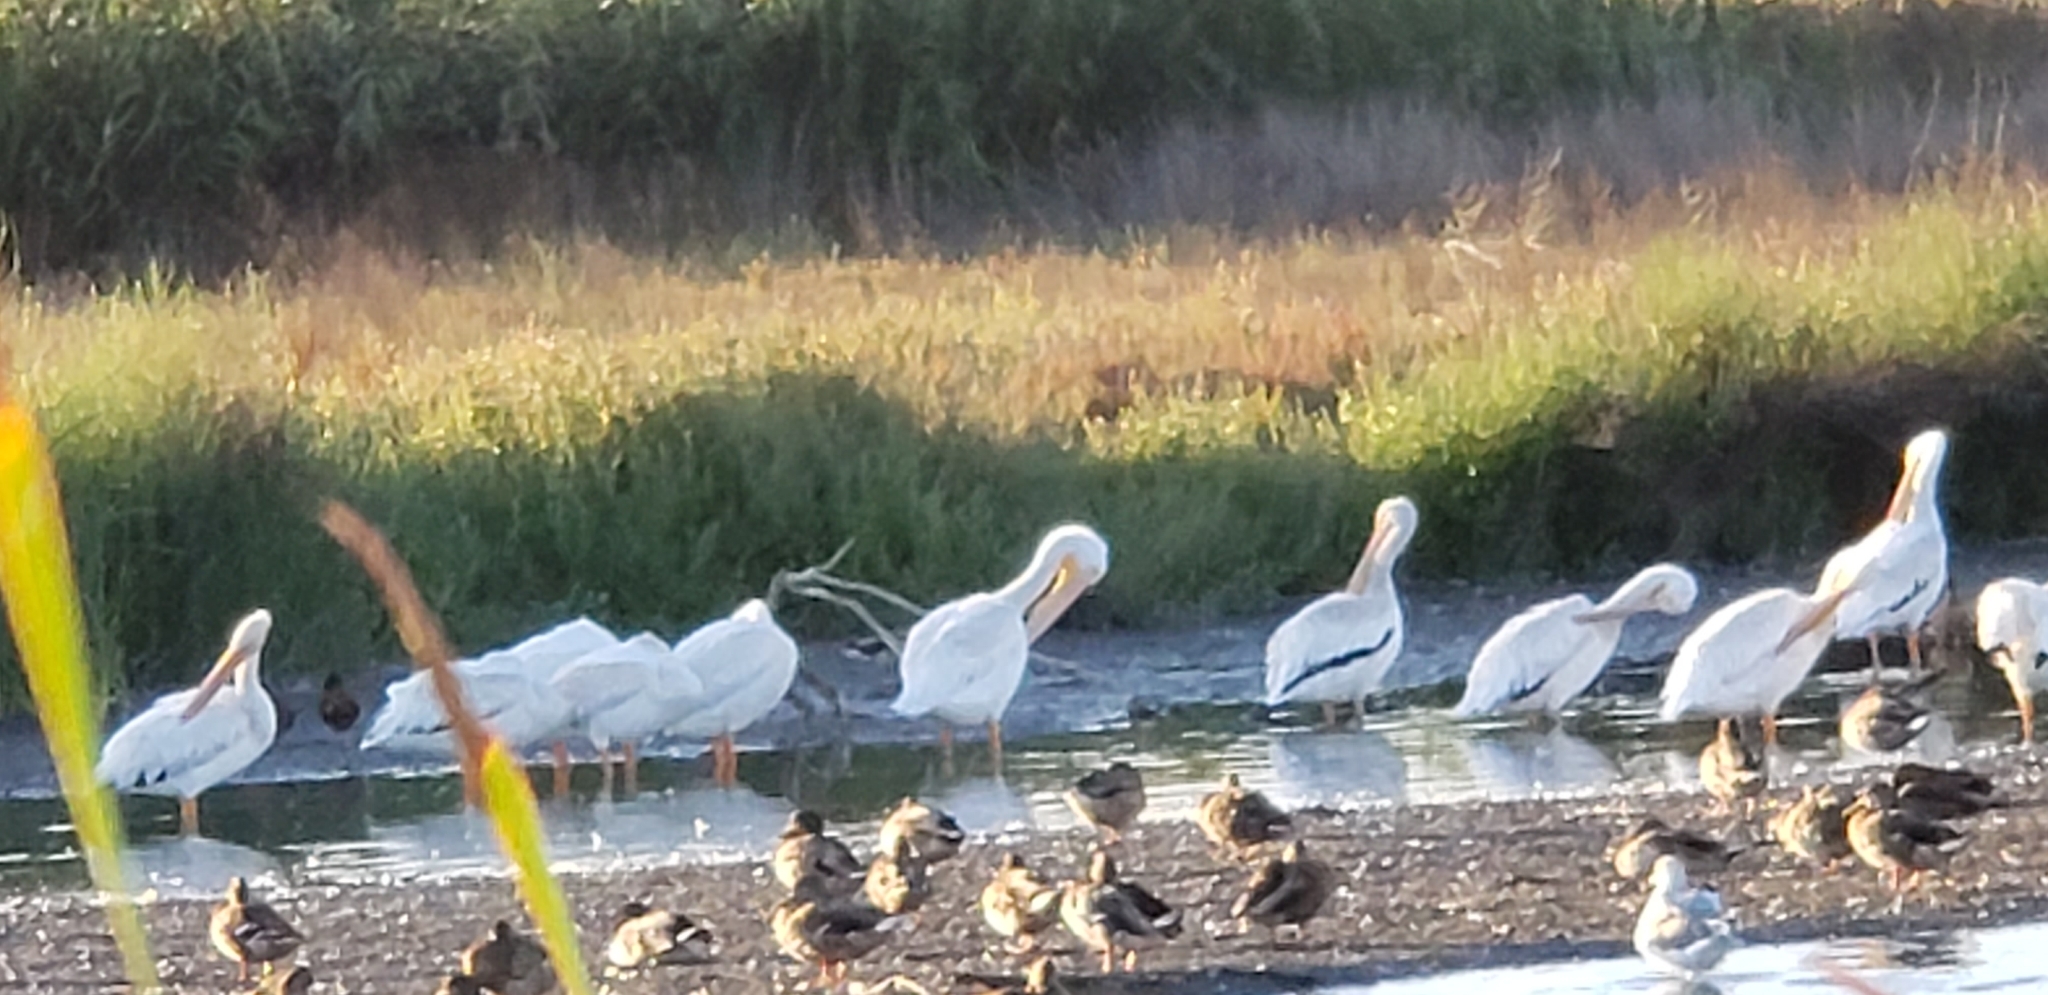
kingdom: Animalia
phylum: Chordata
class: Aves
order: Pelecaniformes
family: Pelecanidae
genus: Pelecanus
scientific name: Pelecanus erythrorhynchos
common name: American white pelican
